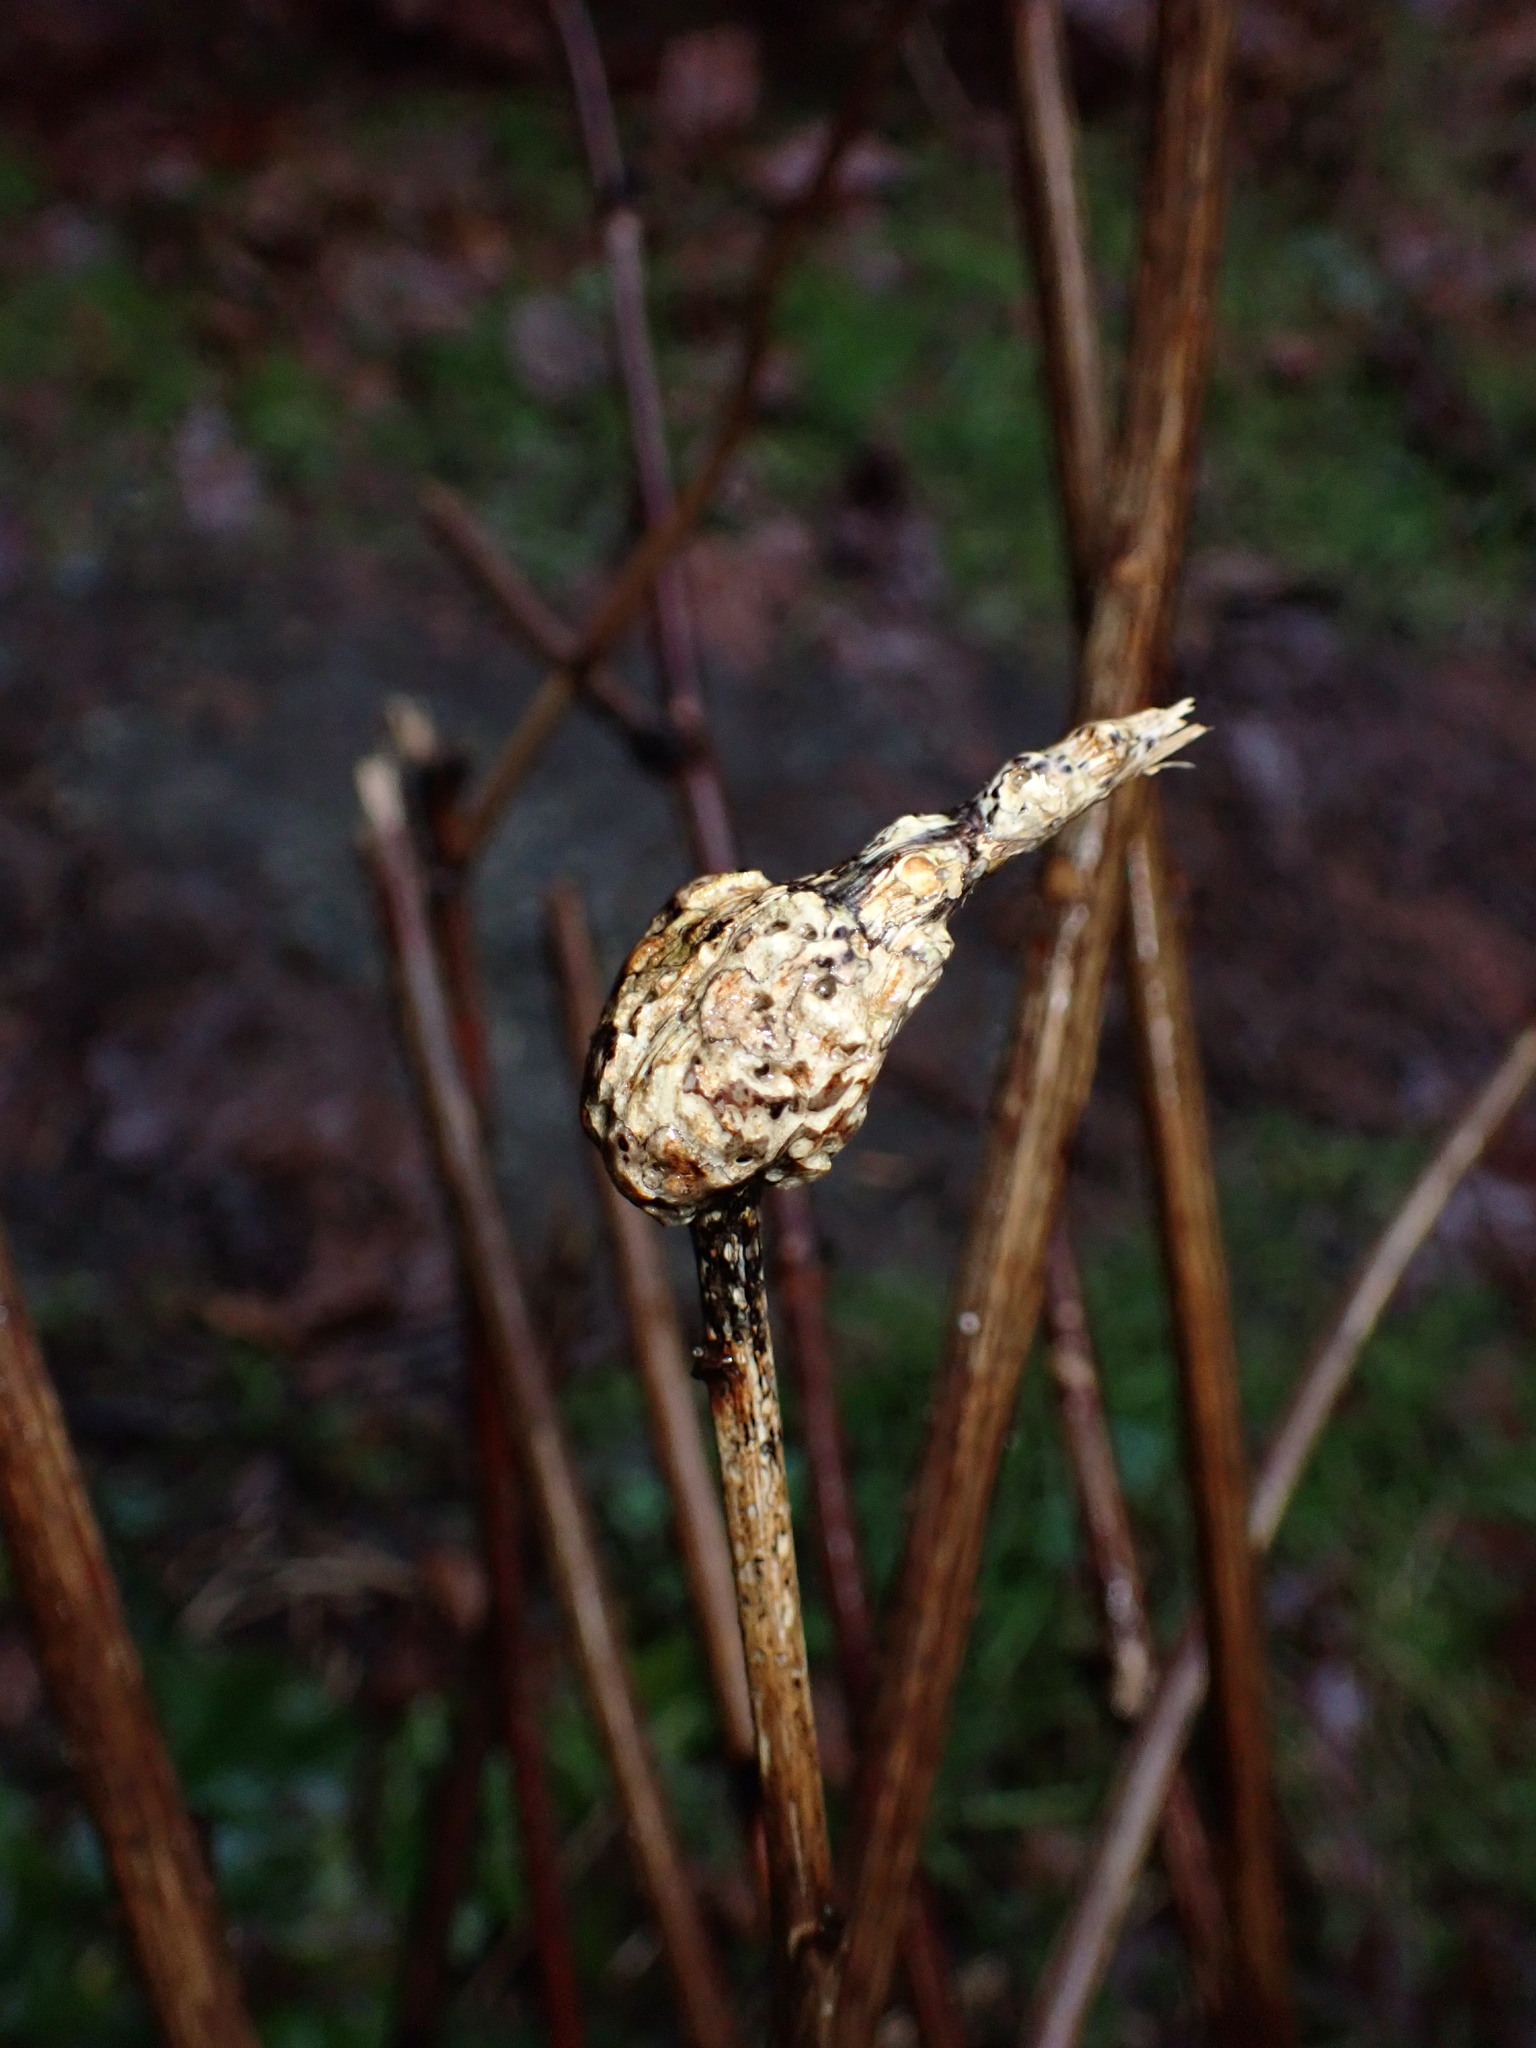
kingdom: Plantae
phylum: Tracheophyta
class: Magnoliopsida
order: Rosales
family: Rosaceae
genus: Rubus
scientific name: Rubus parviflorus
